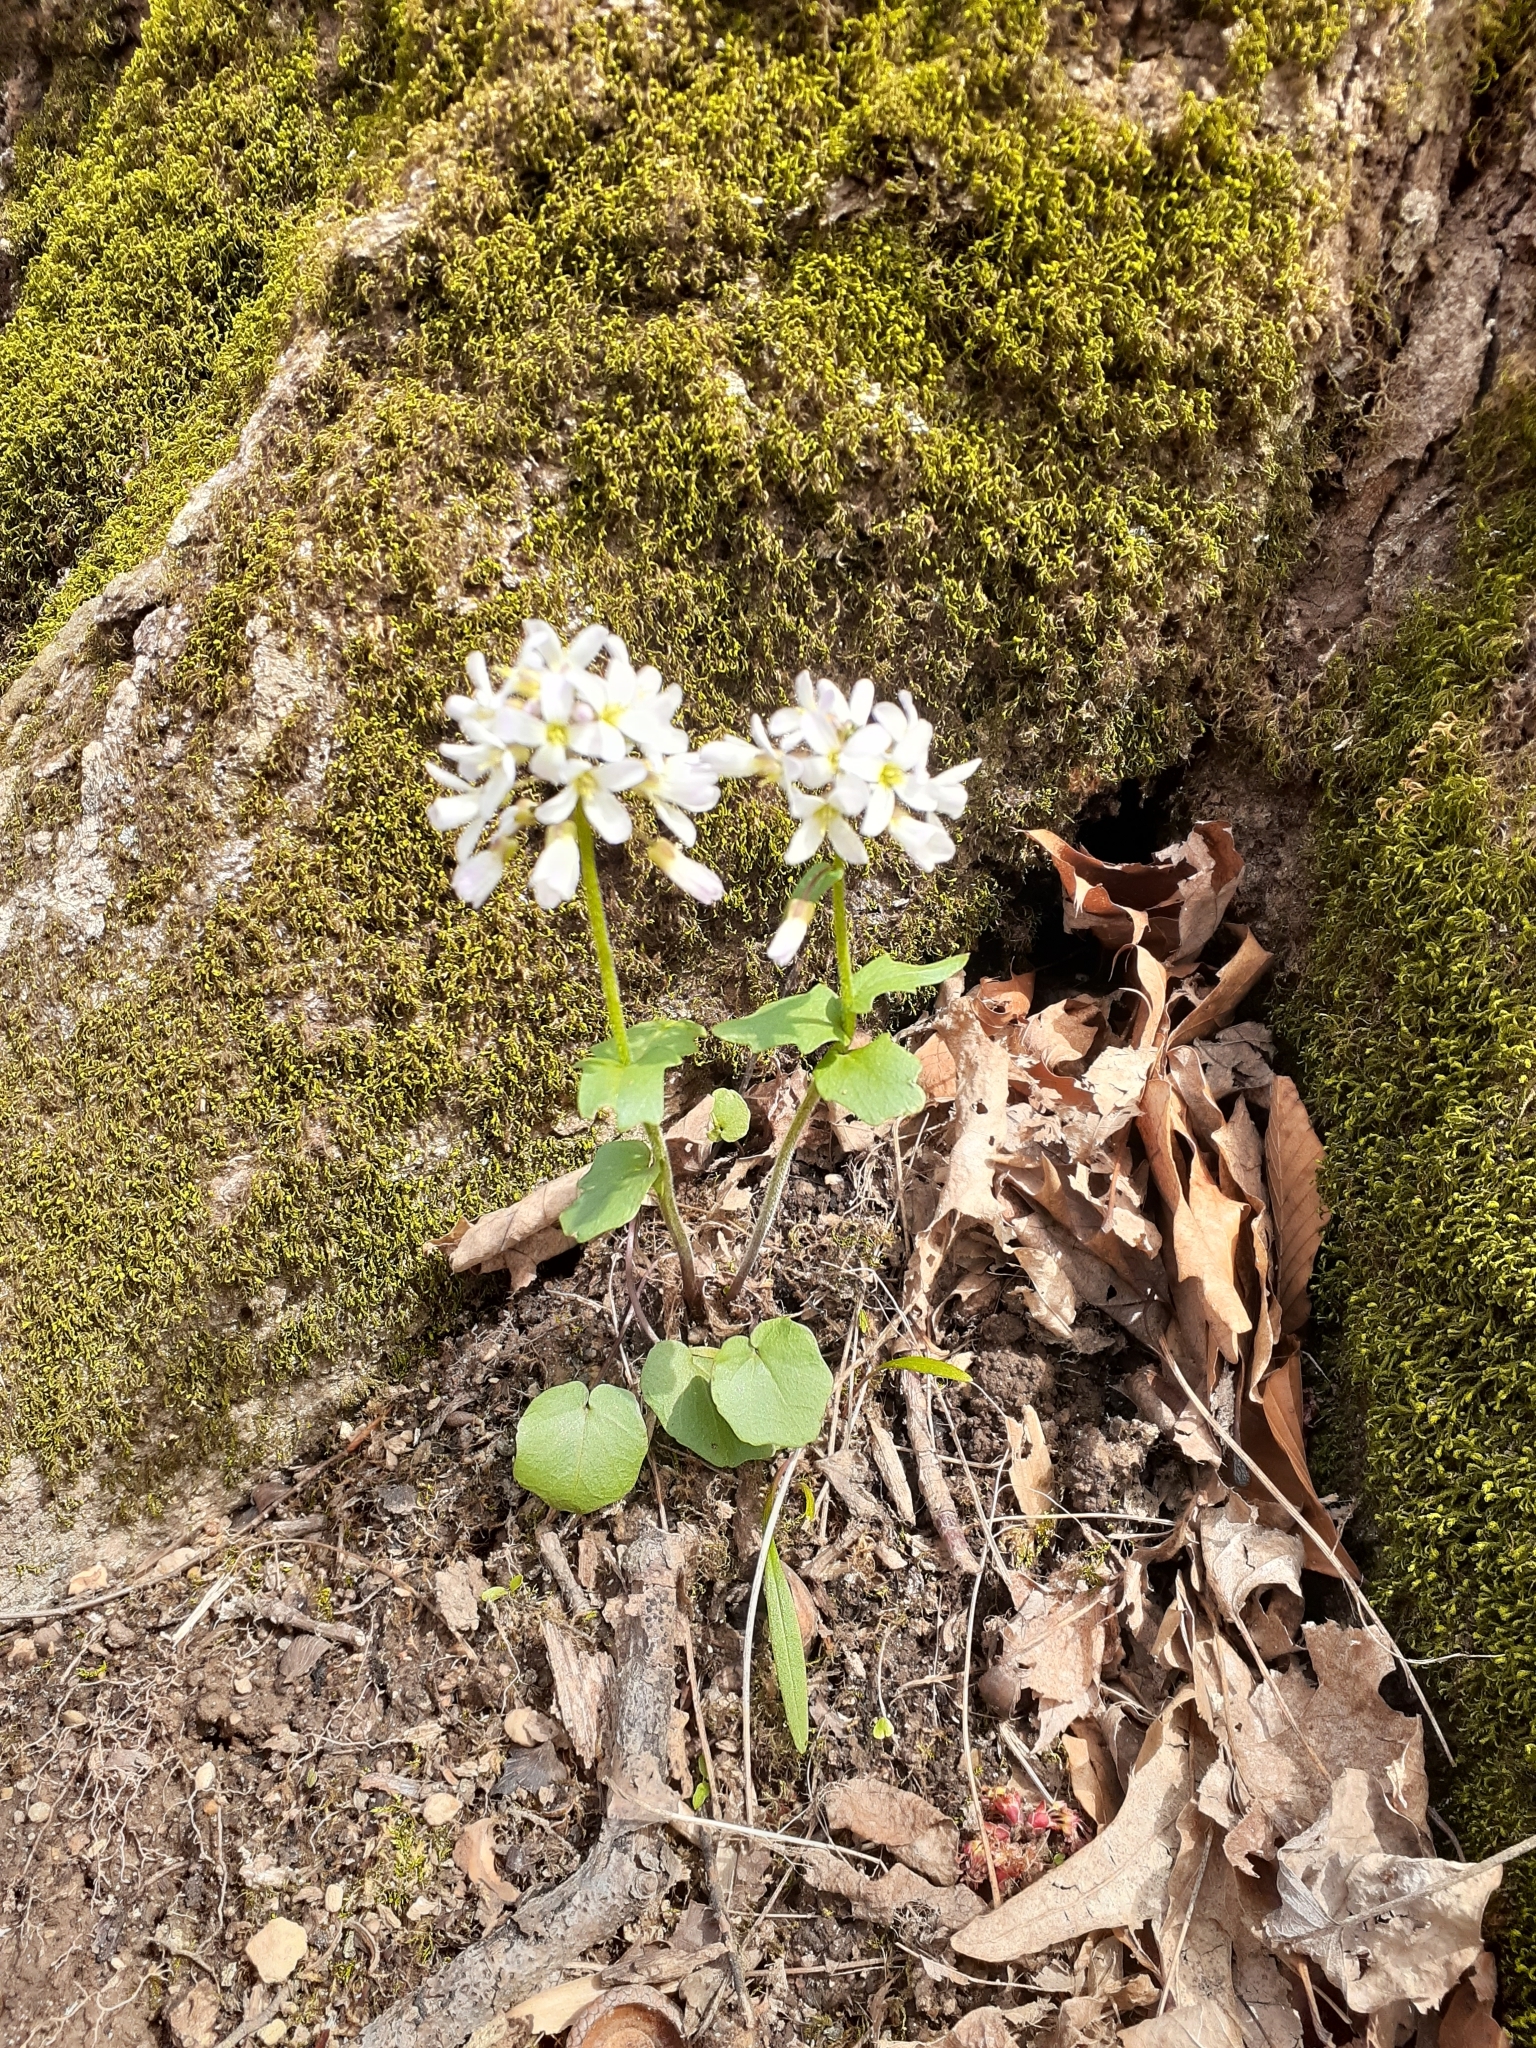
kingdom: Plantae
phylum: Tracheophyta
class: Magnoliopsida
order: Brassicales
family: Brassicaceae
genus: Cardamine
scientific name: Cardamine douglassii
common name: Purple cress
